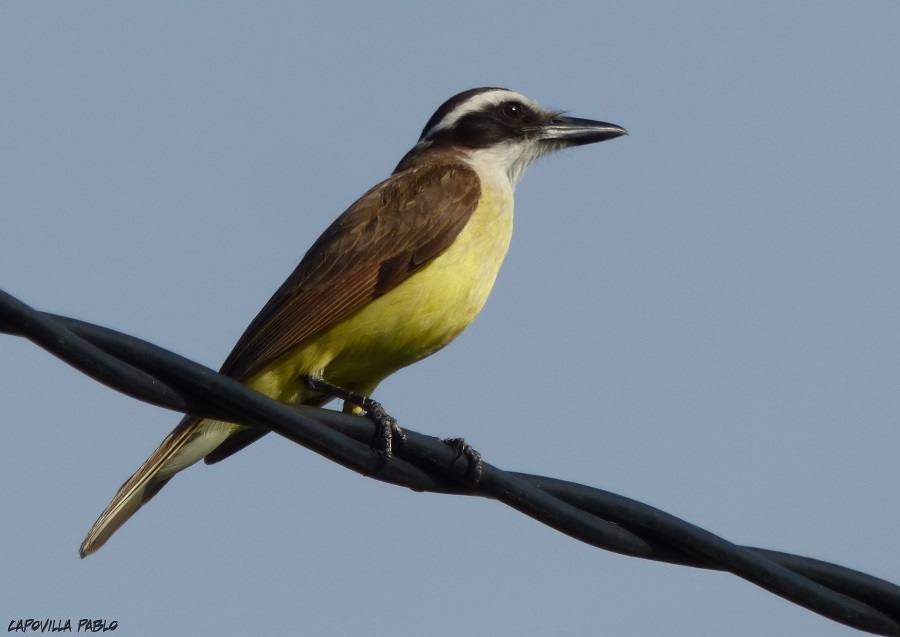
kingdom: Animalia
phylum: Chordata
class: Aves
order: Passeriformes
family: Tyrannidae
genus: Pitangus
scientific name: Pitangus sulphuratus
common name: Great kiskadee
